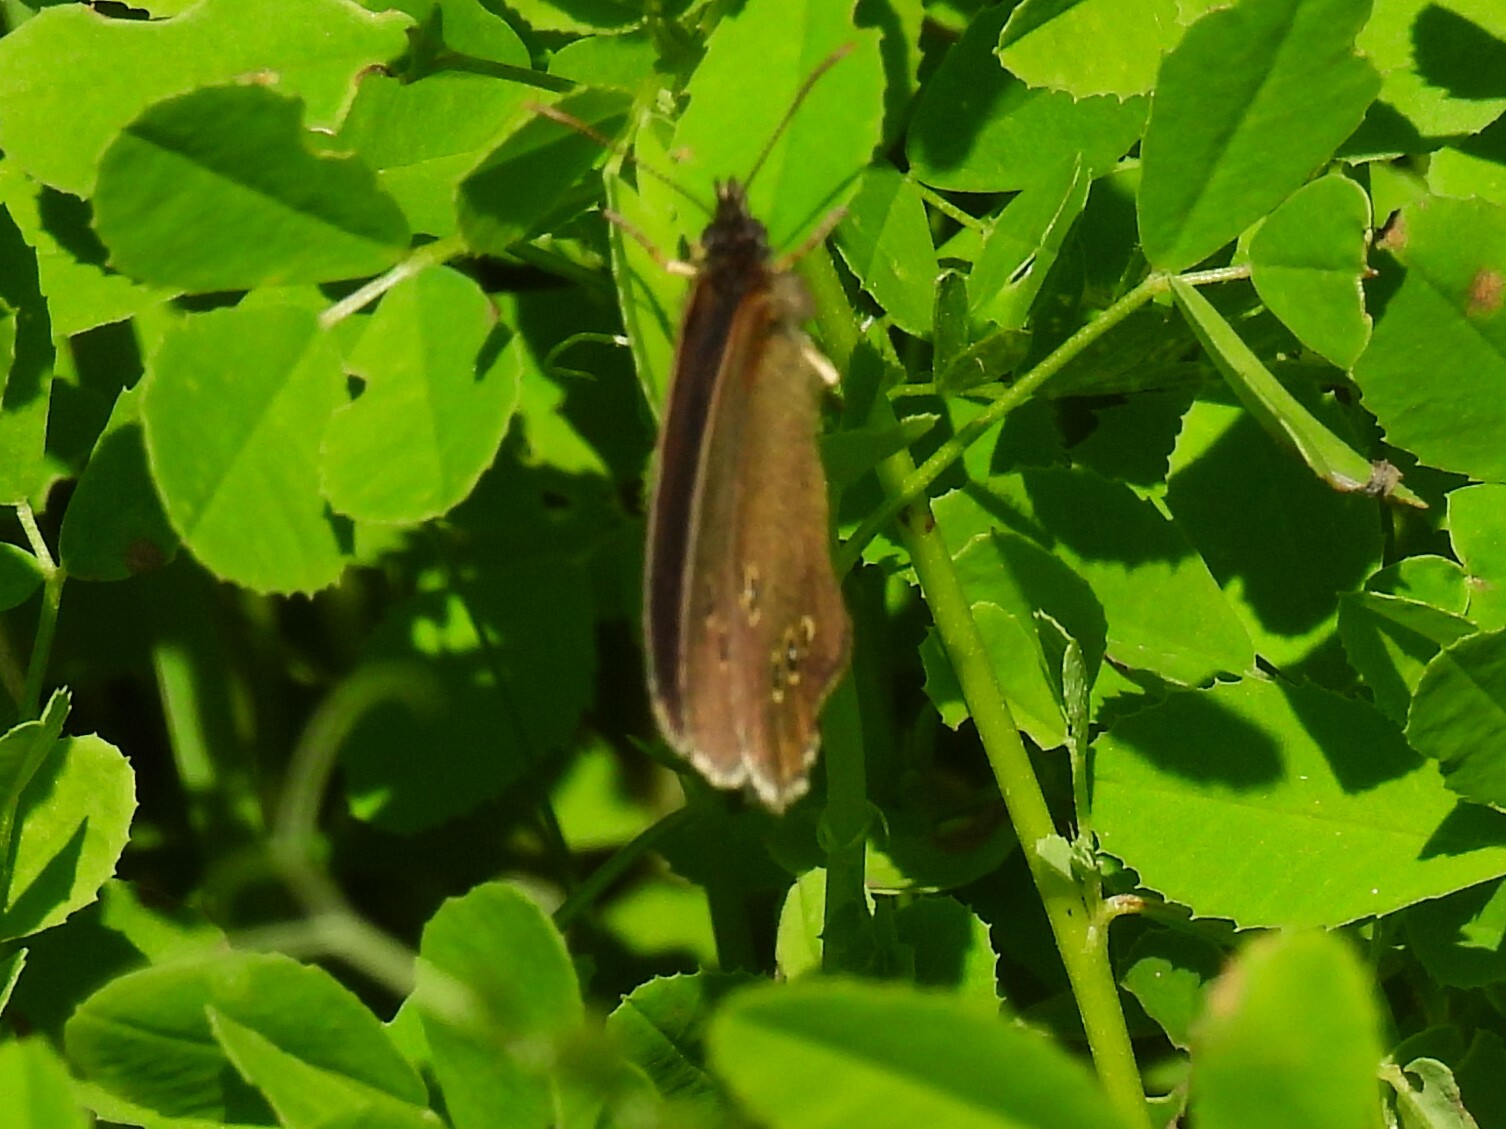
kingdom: Animalia
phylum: Arthropoda
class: Insecta
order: Lepidoptera
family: Nymphalidae
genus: Aphantopus
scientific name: Aphantopus hyperantus
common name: Ringlet
